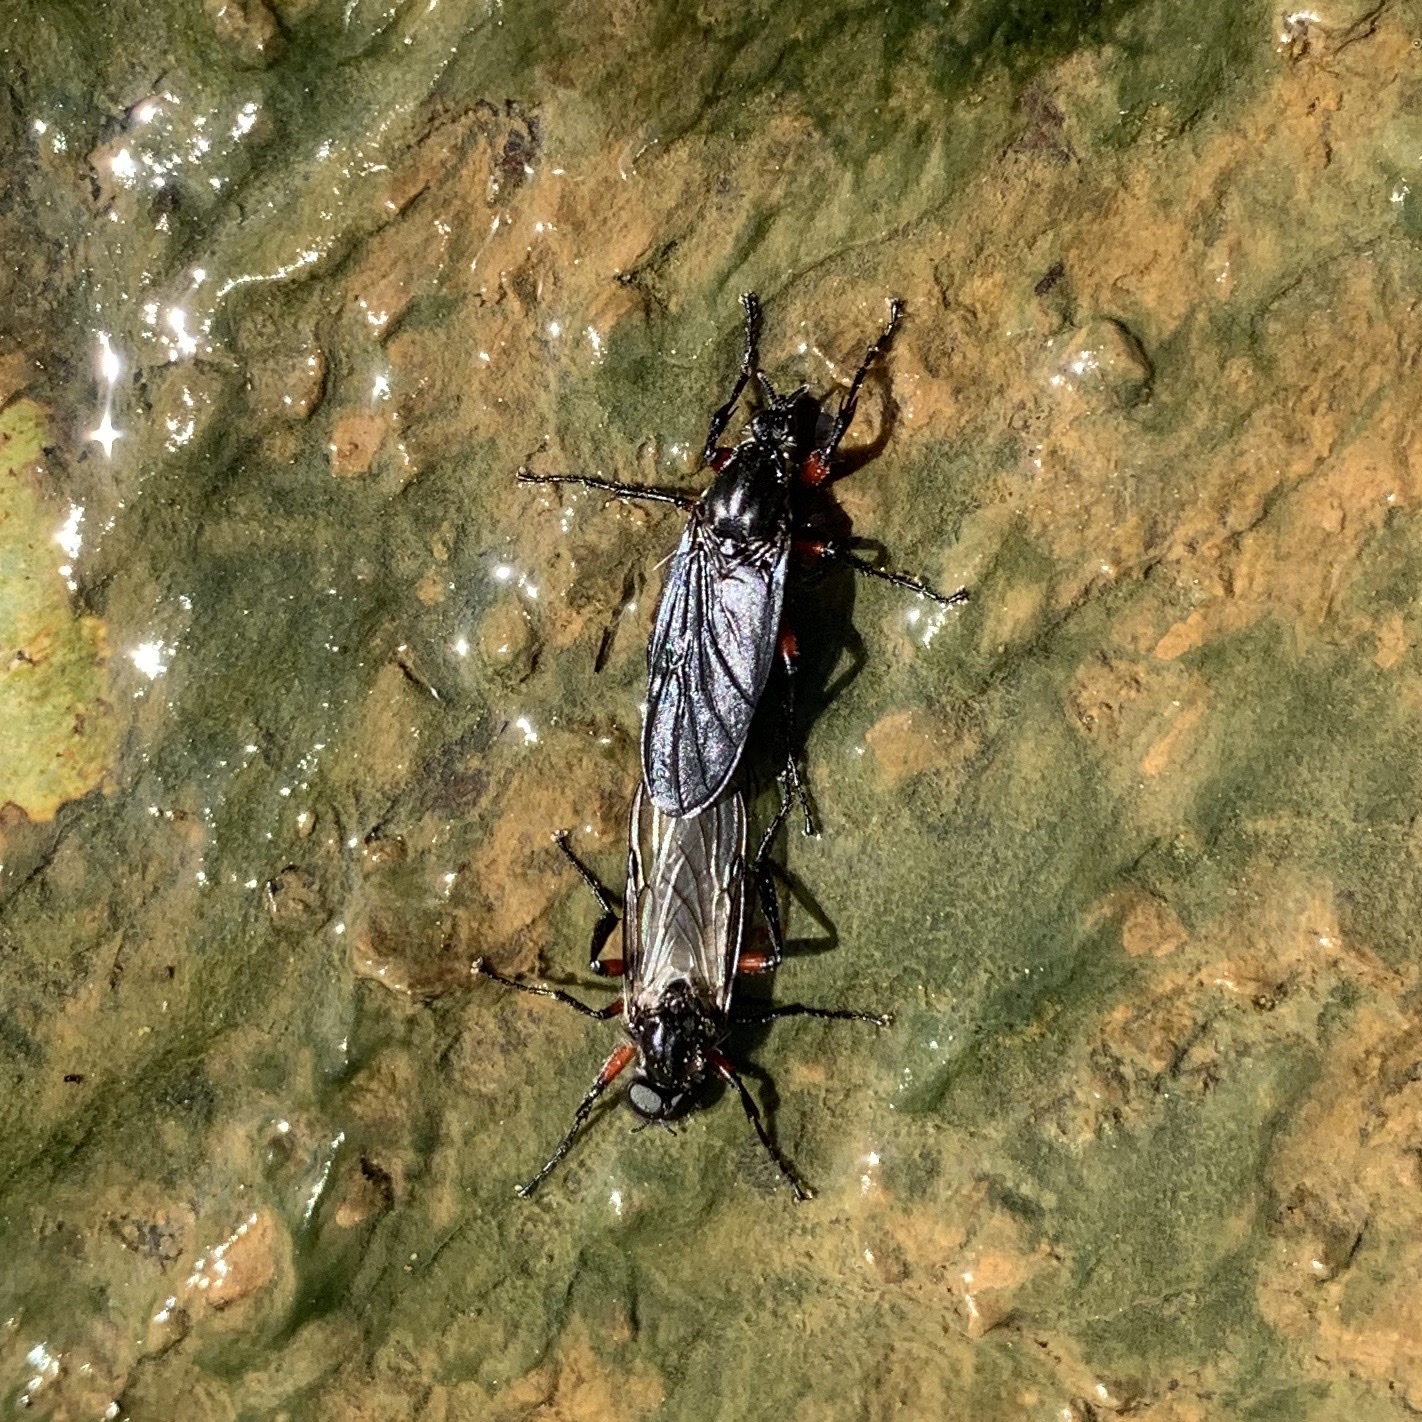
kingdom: Animalia
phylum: Arthropoda
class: Insecta
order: Diptera
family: Bibionidae
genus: Bibio
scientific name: Bibio femoratus
